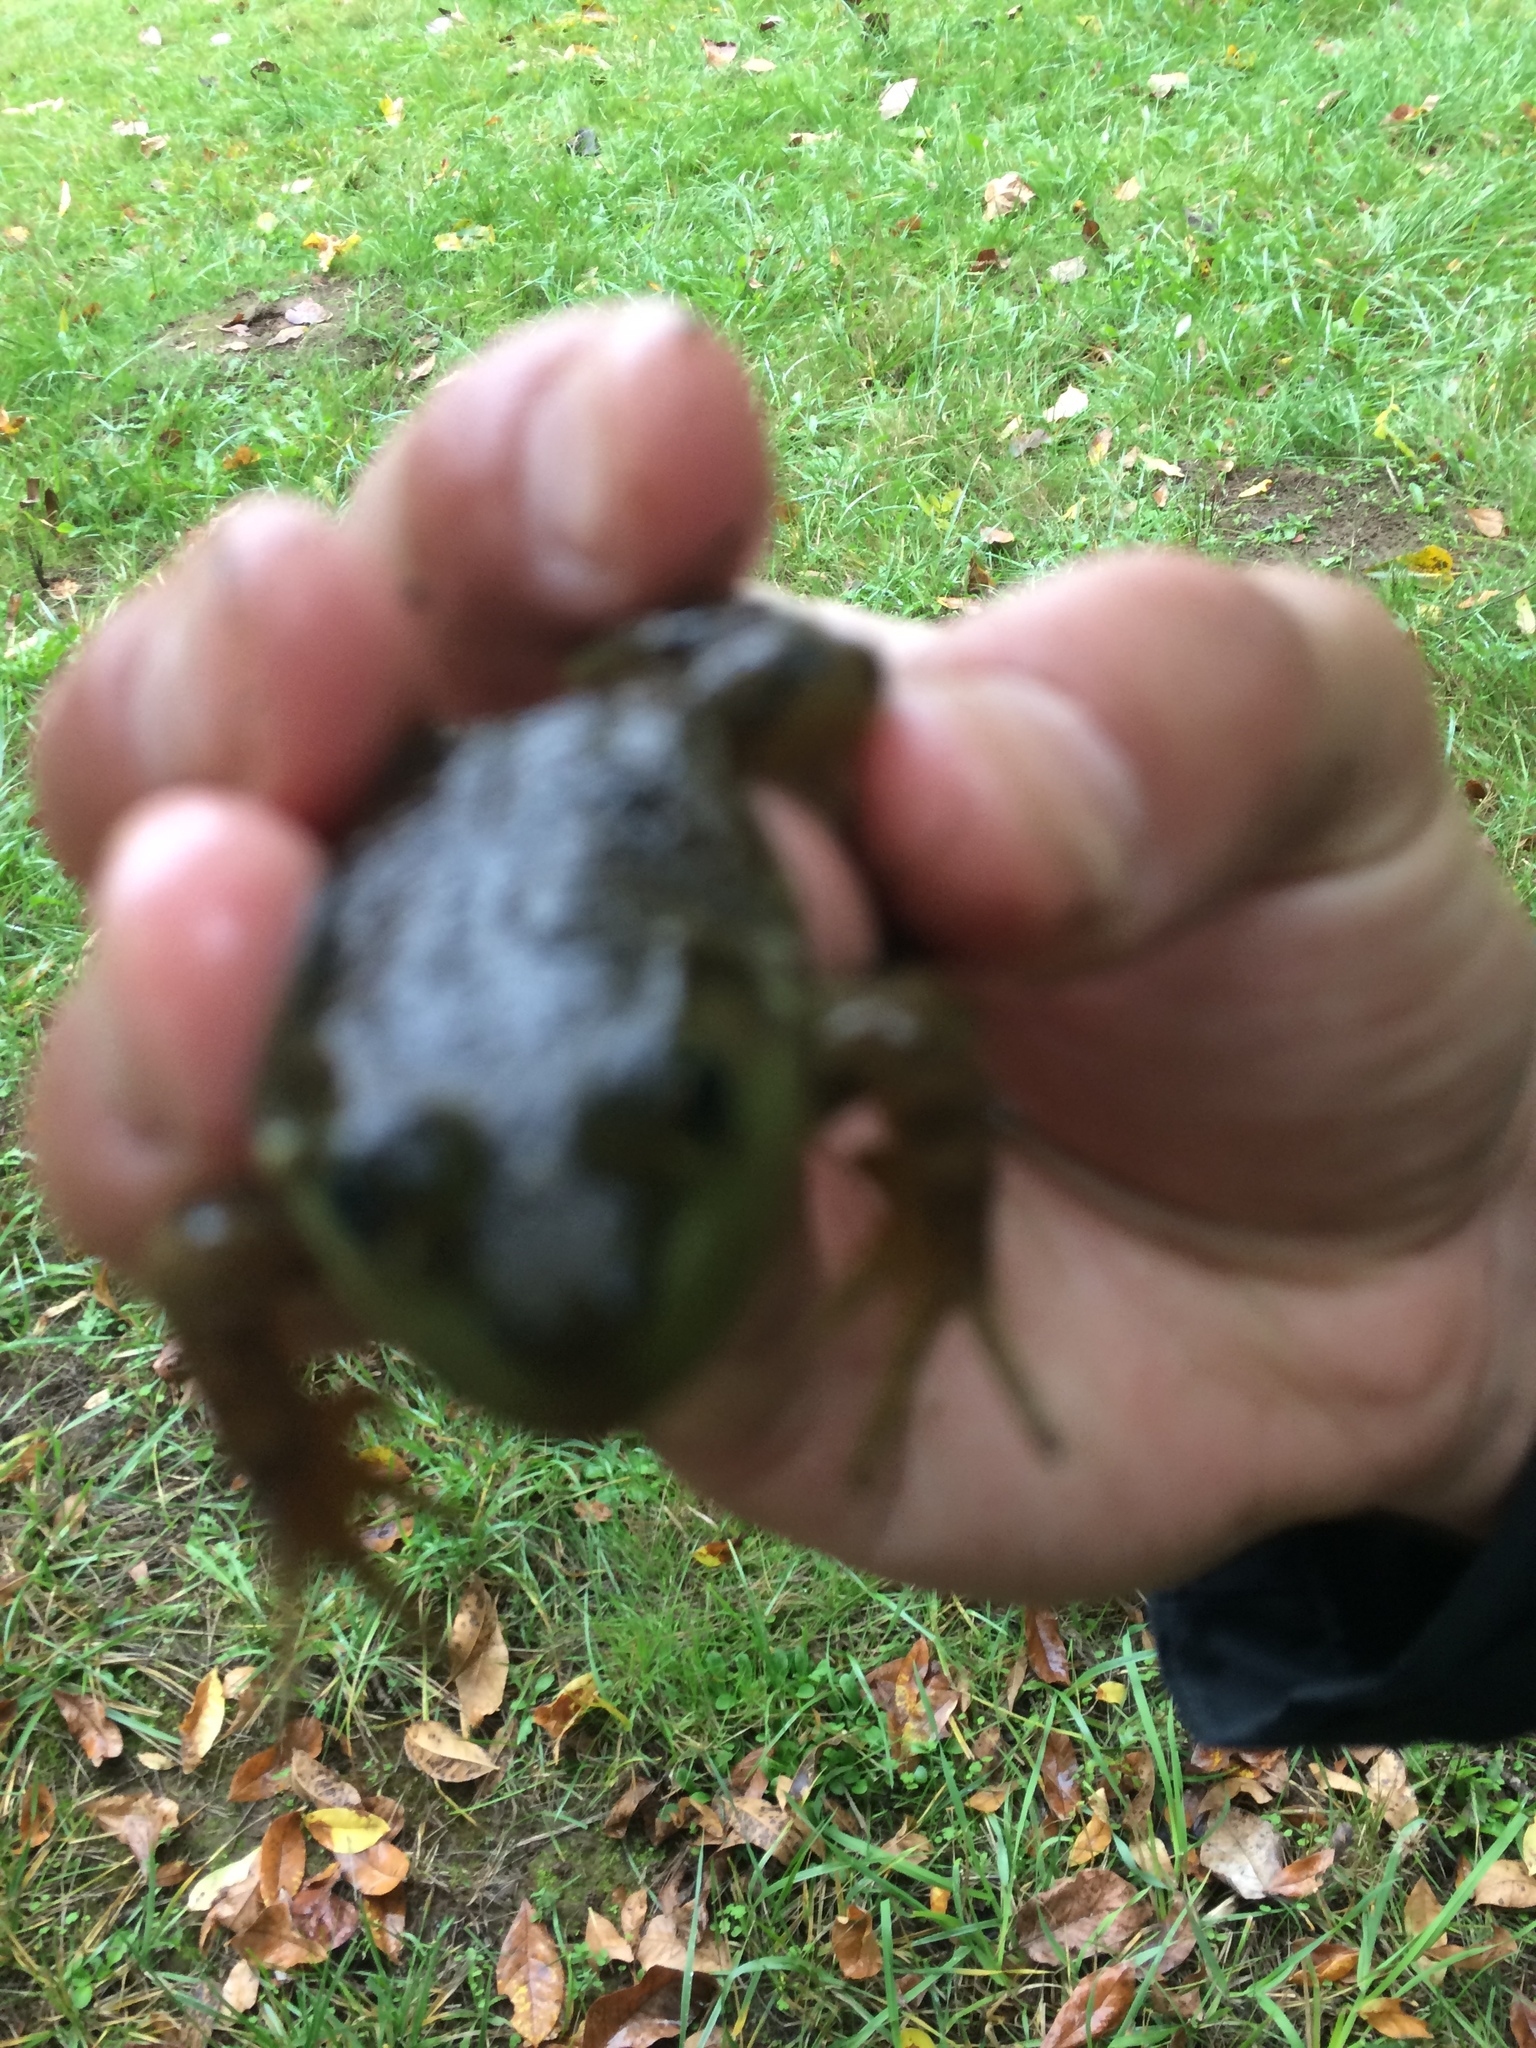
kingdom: Animalia
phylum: Chordata
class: Amphibia
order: Anura
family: Ranidae
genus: Lithobates
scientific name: Lithobates catesbeianus
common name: American bullfrog
